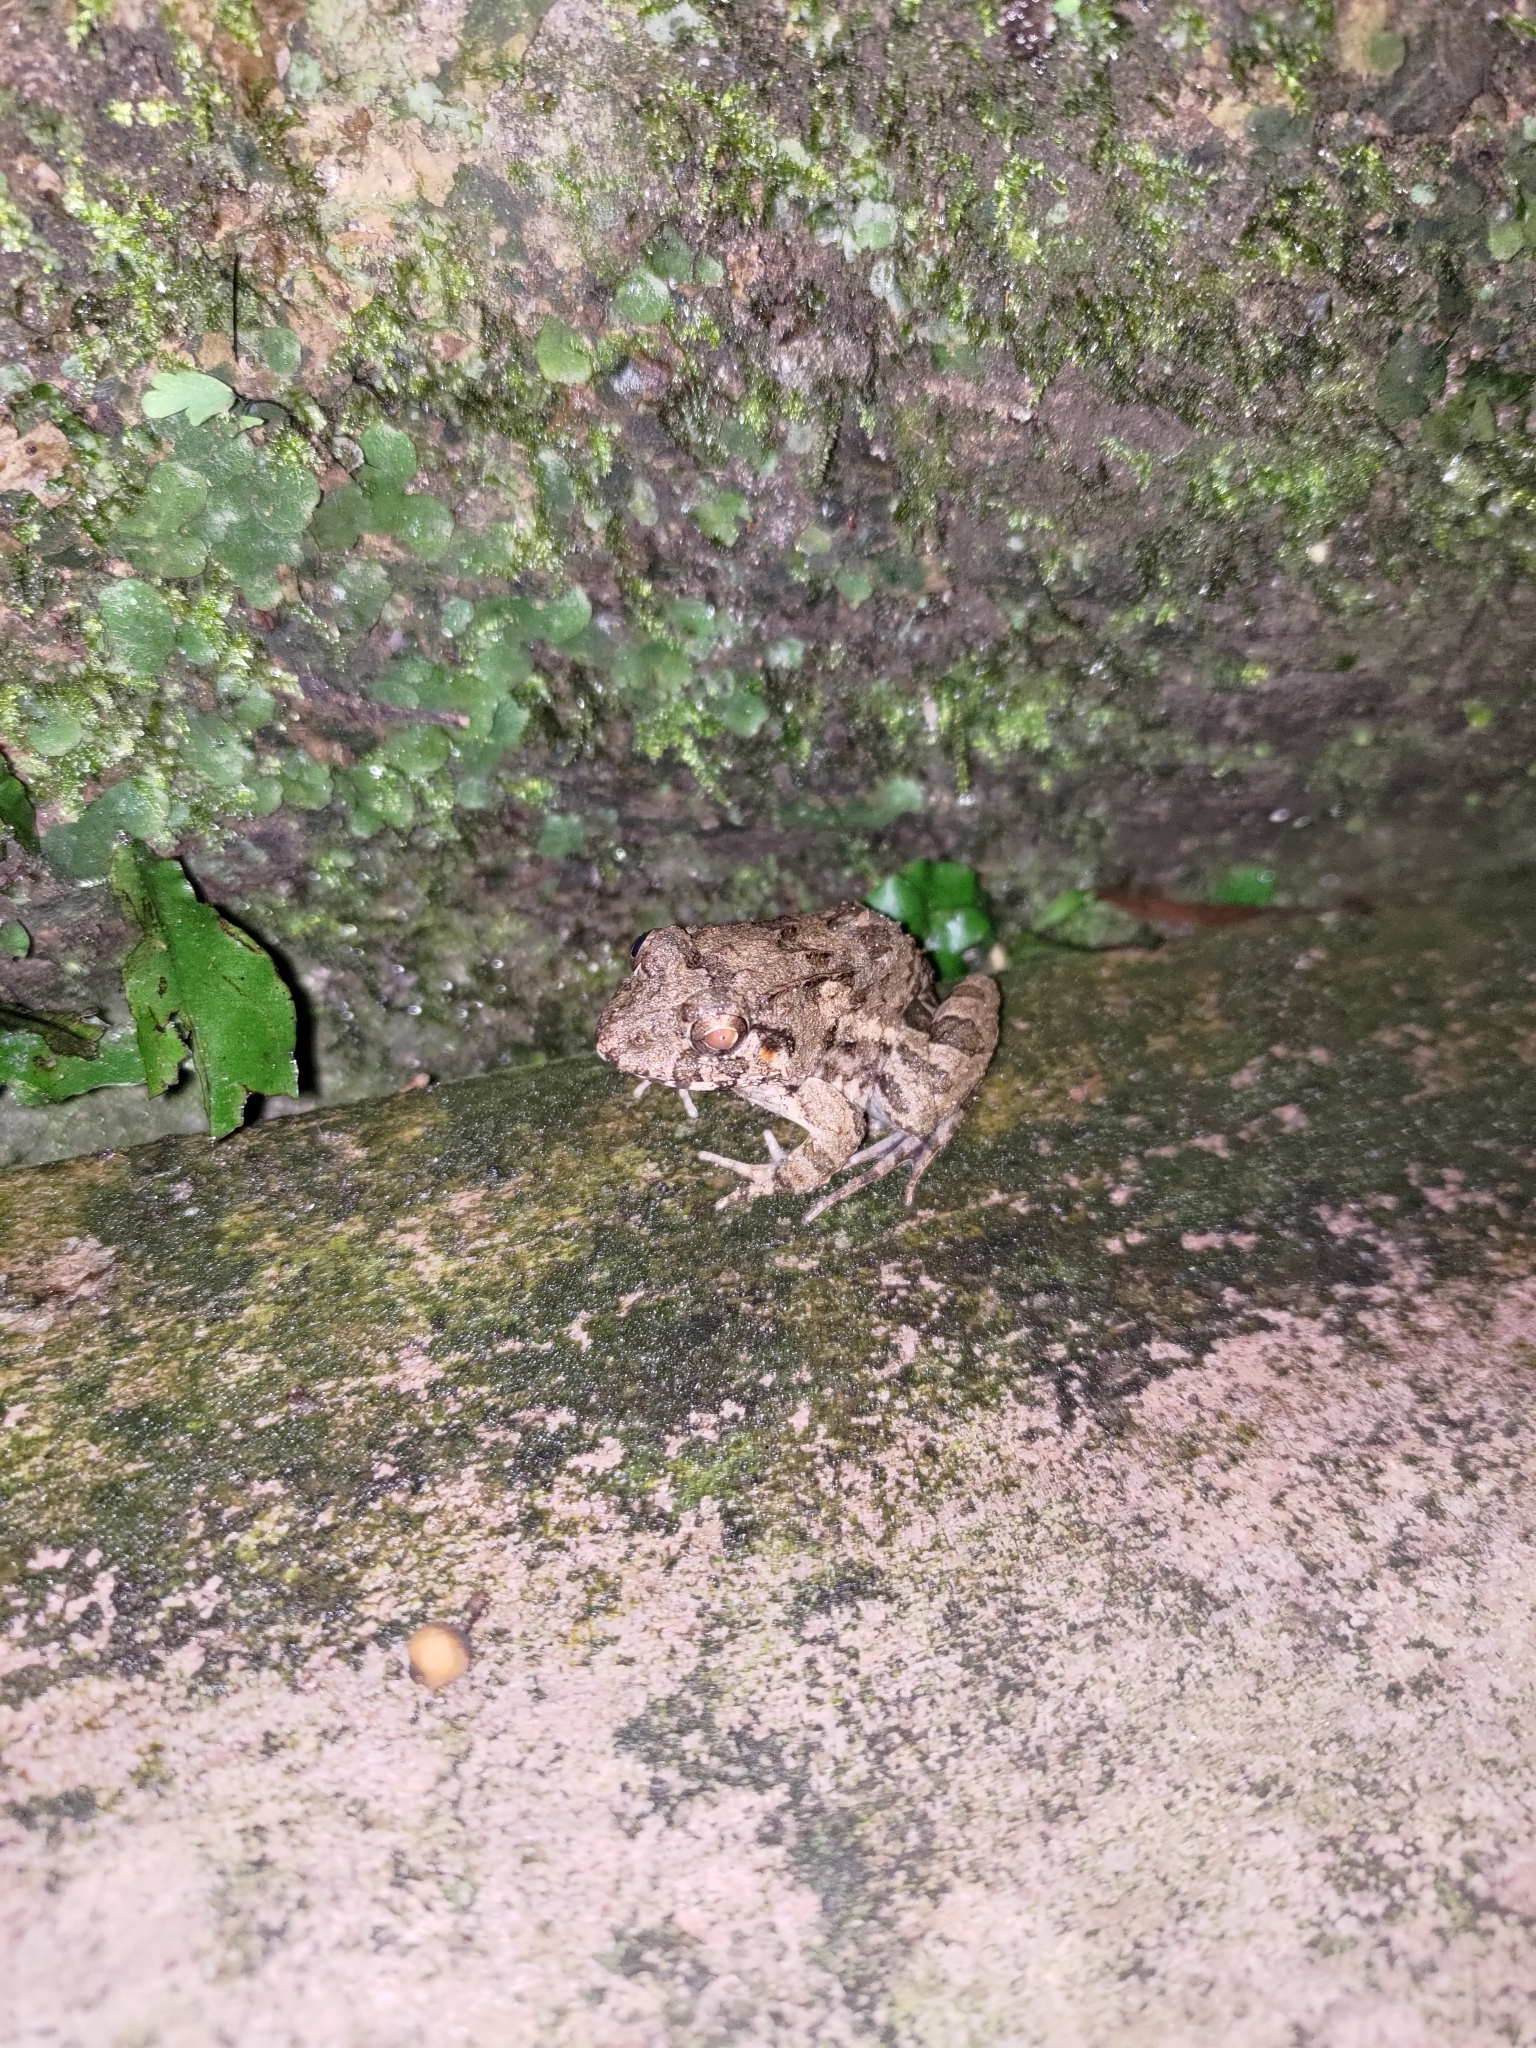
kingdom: Animalia
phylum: Chordata
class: Amphibia
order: Anura
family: Dicroglossidae
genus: Fejervarya
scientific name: Fejervarya limnocharis
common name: Asian grass frog/common pond frog/field frog/grass frog/indian rice frog
